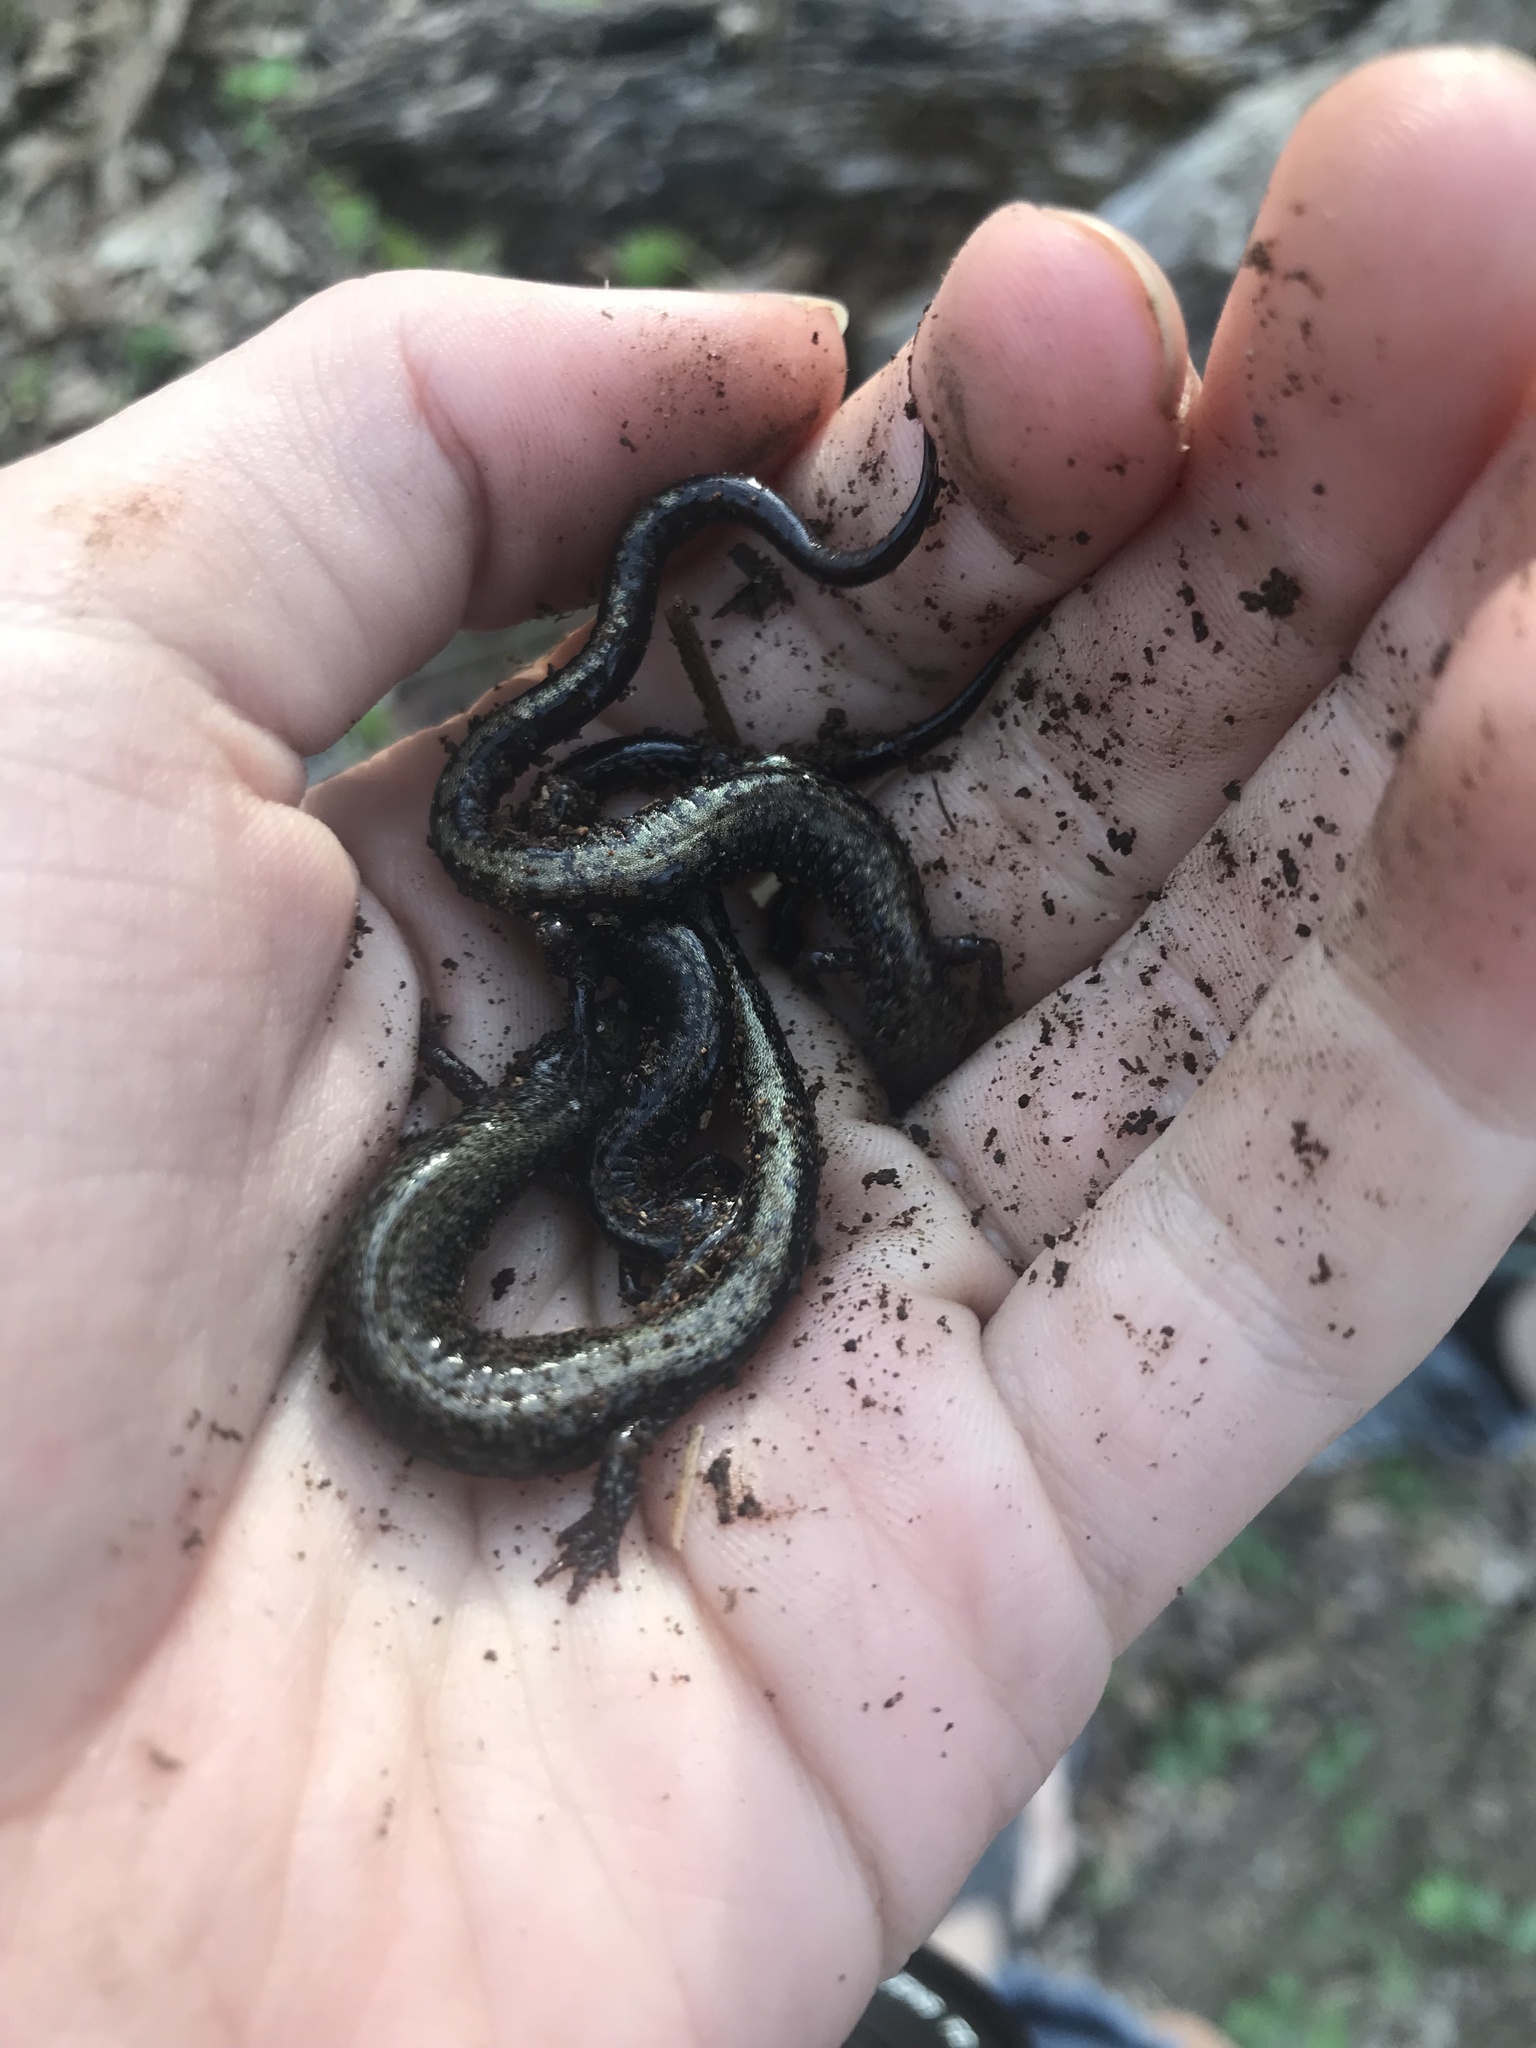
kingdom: Animalia
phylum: Chordata
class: Amphibia
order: Caudata
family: Plethodontidae
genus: Plethodon
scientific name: Plethodon hubrichti
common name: Peaks of otter salamander
